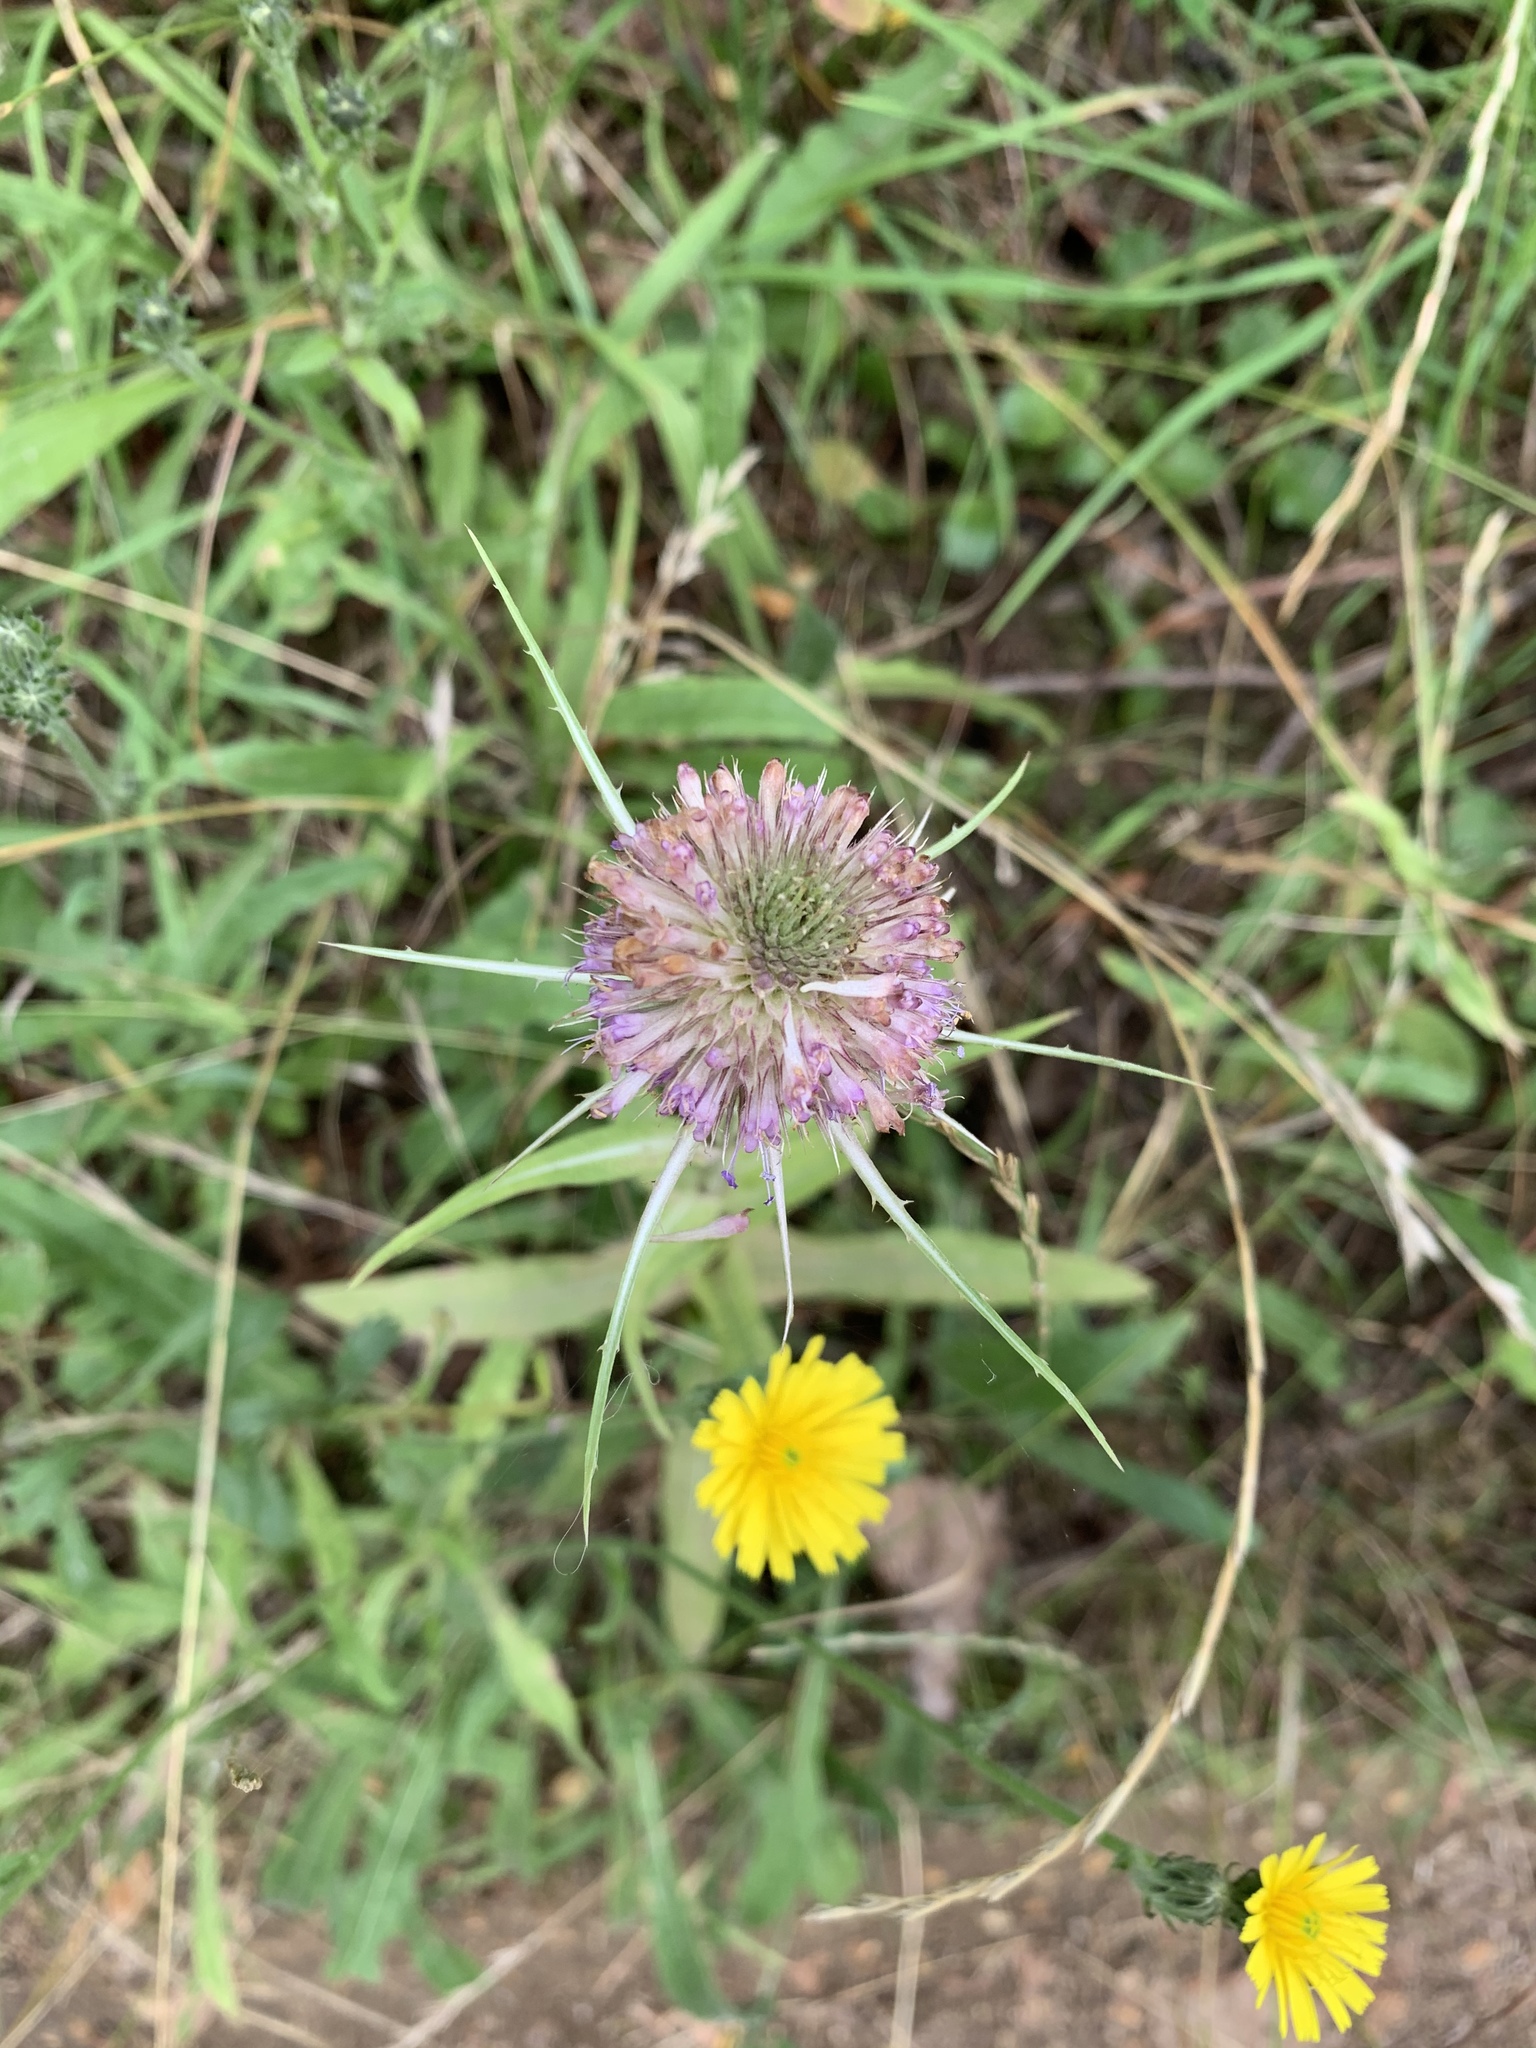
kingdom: Plantae
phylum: Tracheophyta
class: Magnoliopsida
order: Dipsacales
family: Caprifoliaceae
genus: Dipsacus
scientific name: Dipsacus fullonum
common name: Teasel
